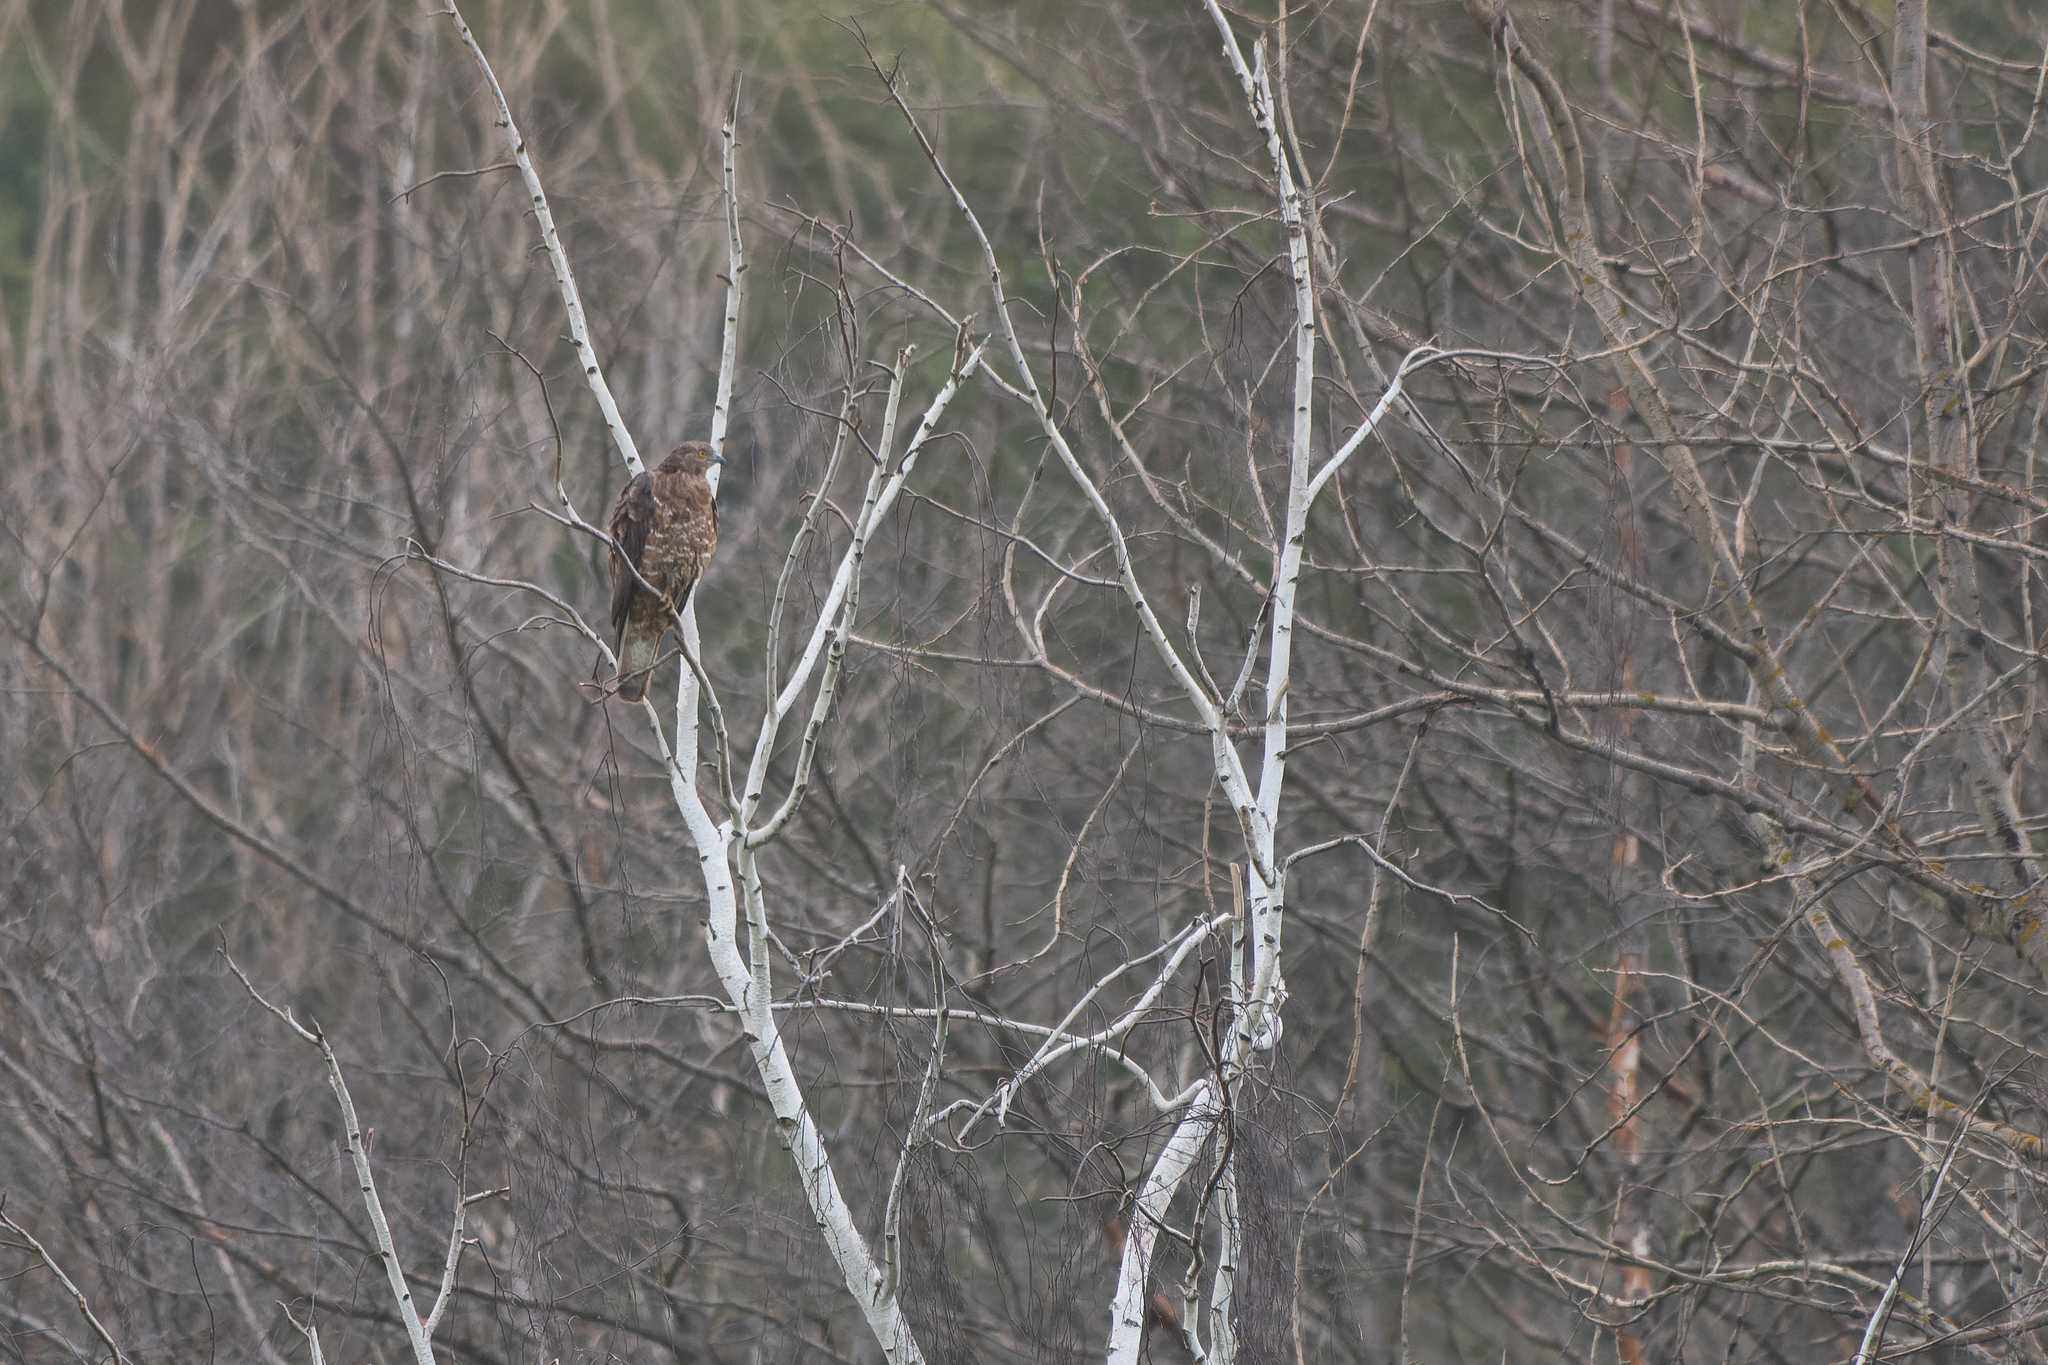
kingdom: Animalia
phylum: Chordata
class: Aves
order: Accipitriformes
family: Accipitridae
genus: Pernis
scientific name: Pernis apivorus
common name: European honey buzzard
